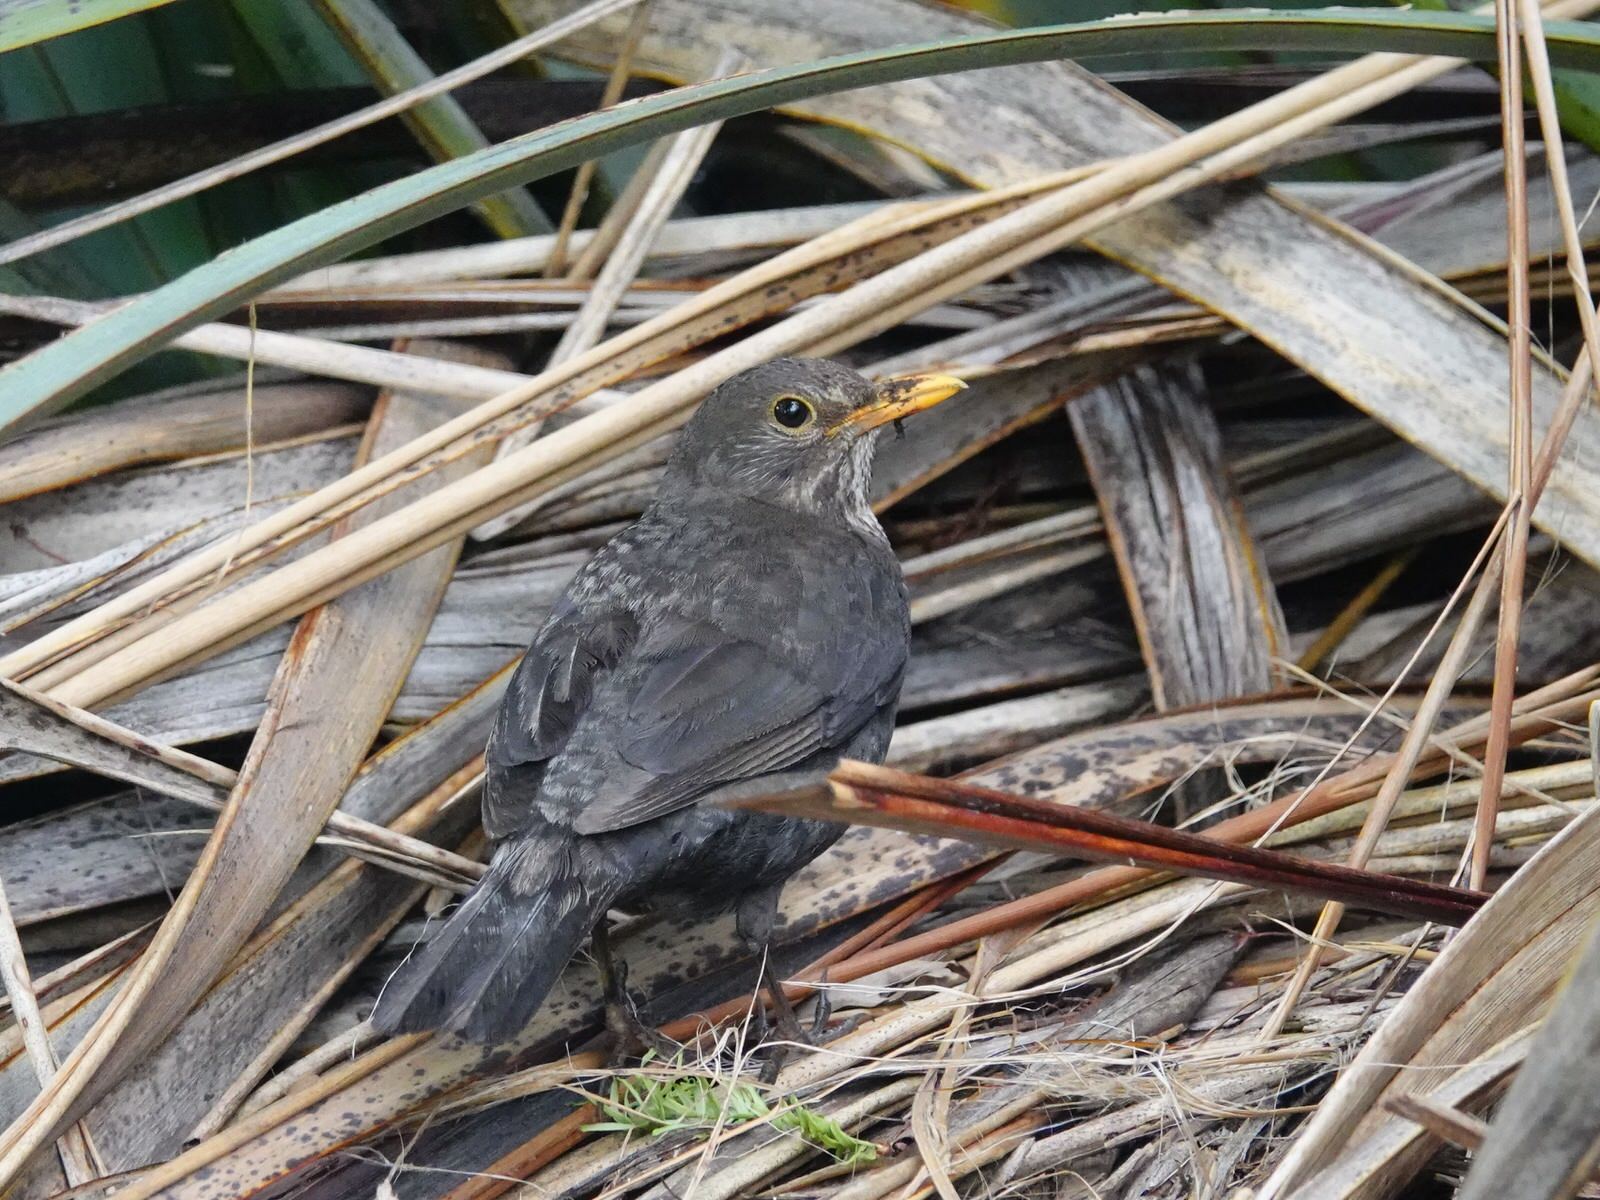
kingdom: Animalia
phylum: Chordata
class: Aves
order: Passeriformes
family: Turdidae
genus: Turdus
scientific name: Turdus merula
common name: Common blackbird
